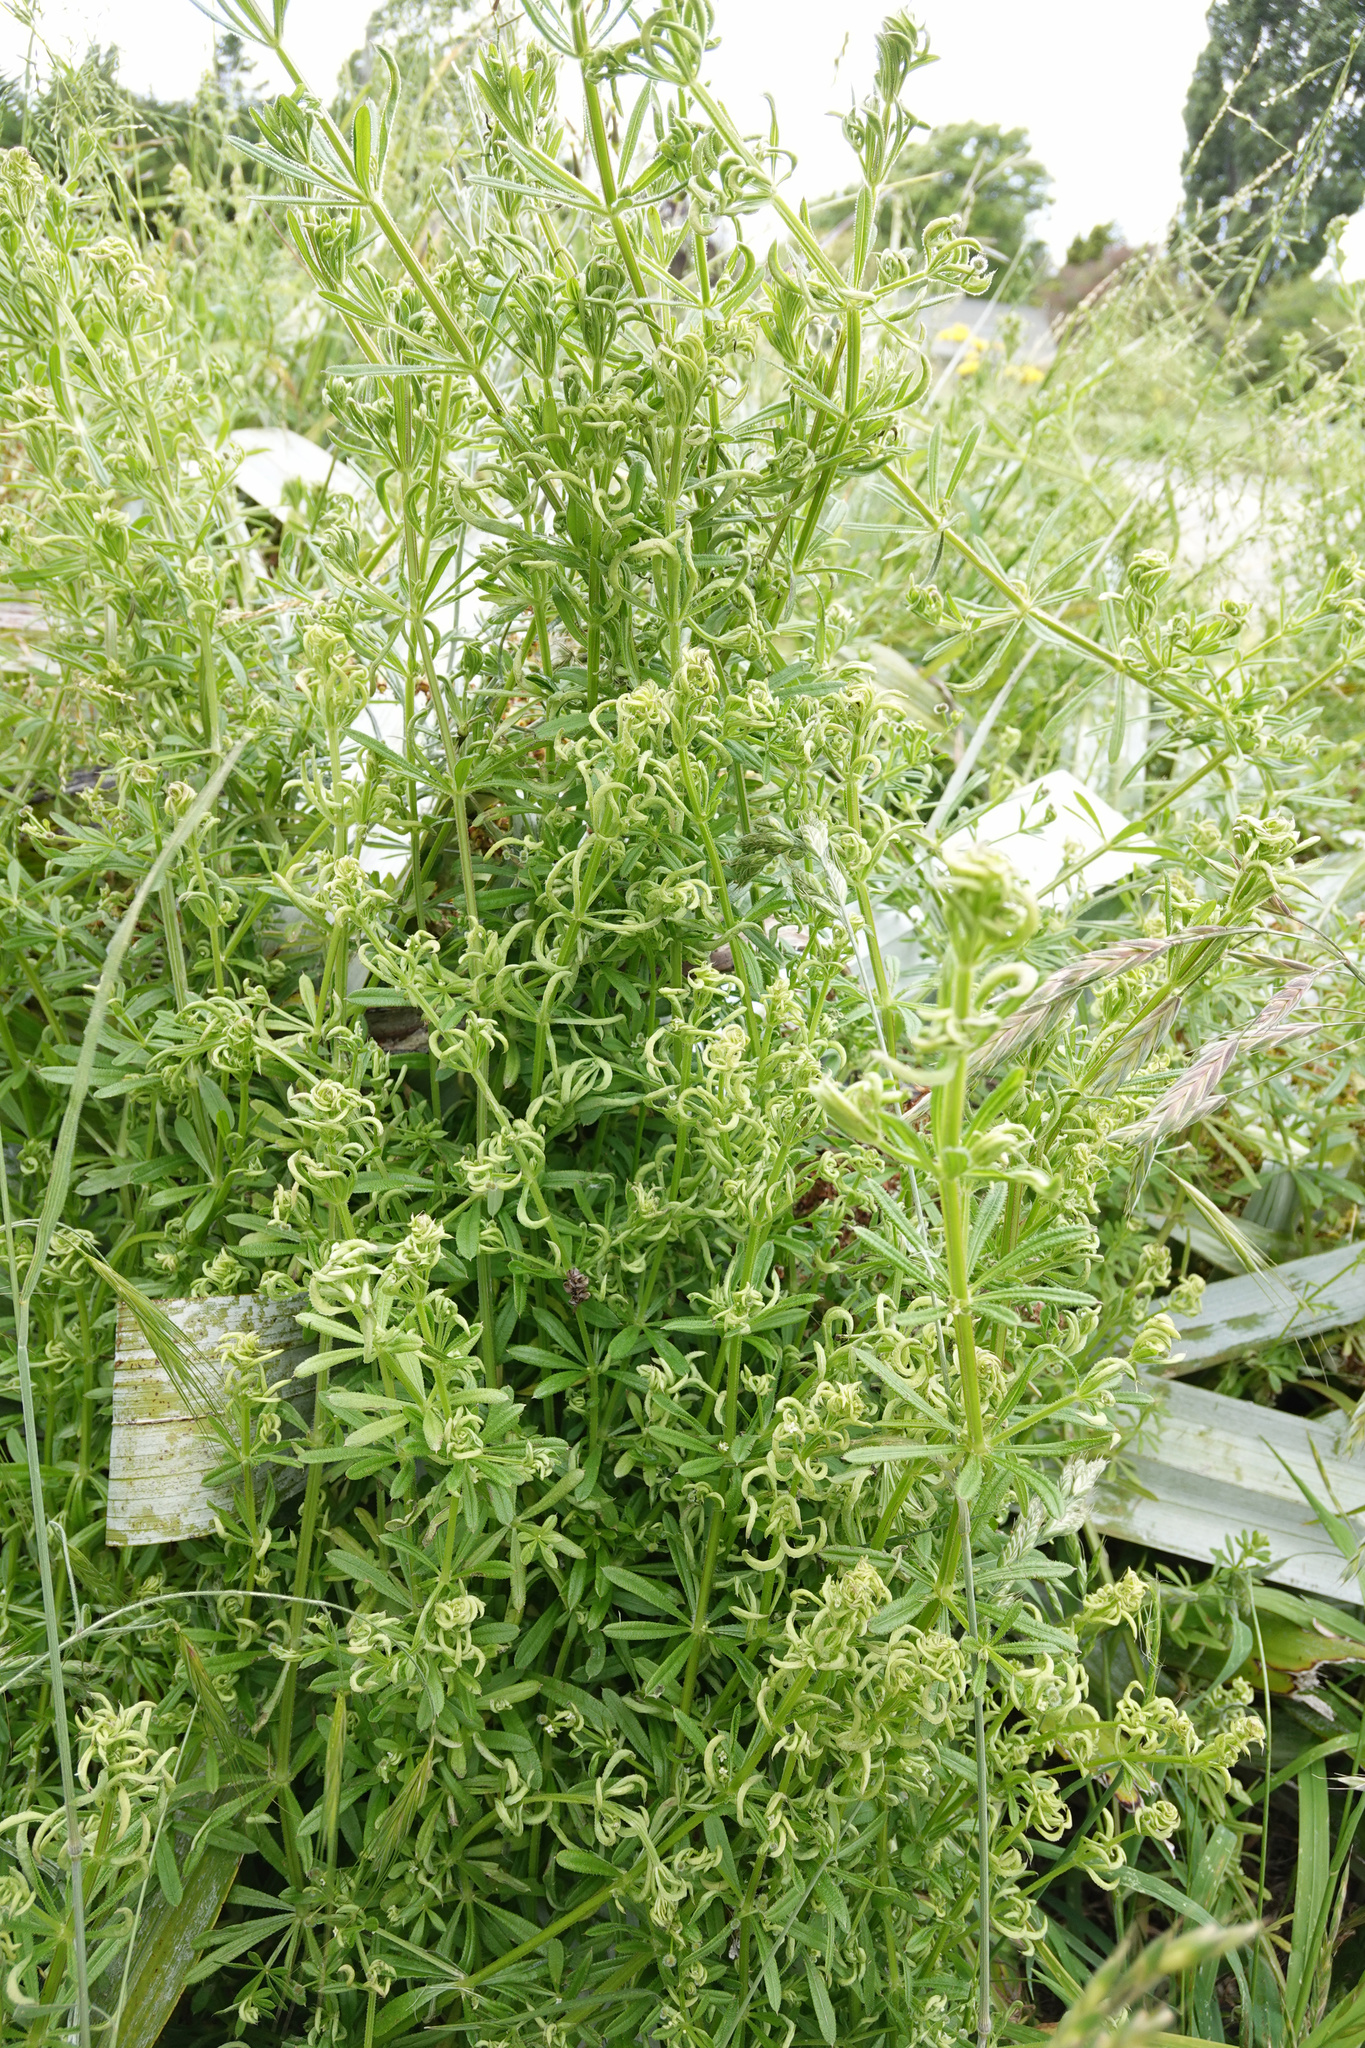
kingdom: Animalia
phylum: Arthropoda
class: Arachnida
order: Trombidiformes
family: Eriophyidae
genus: Cecidophyes
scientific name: Cecidophyes rouhollahi
